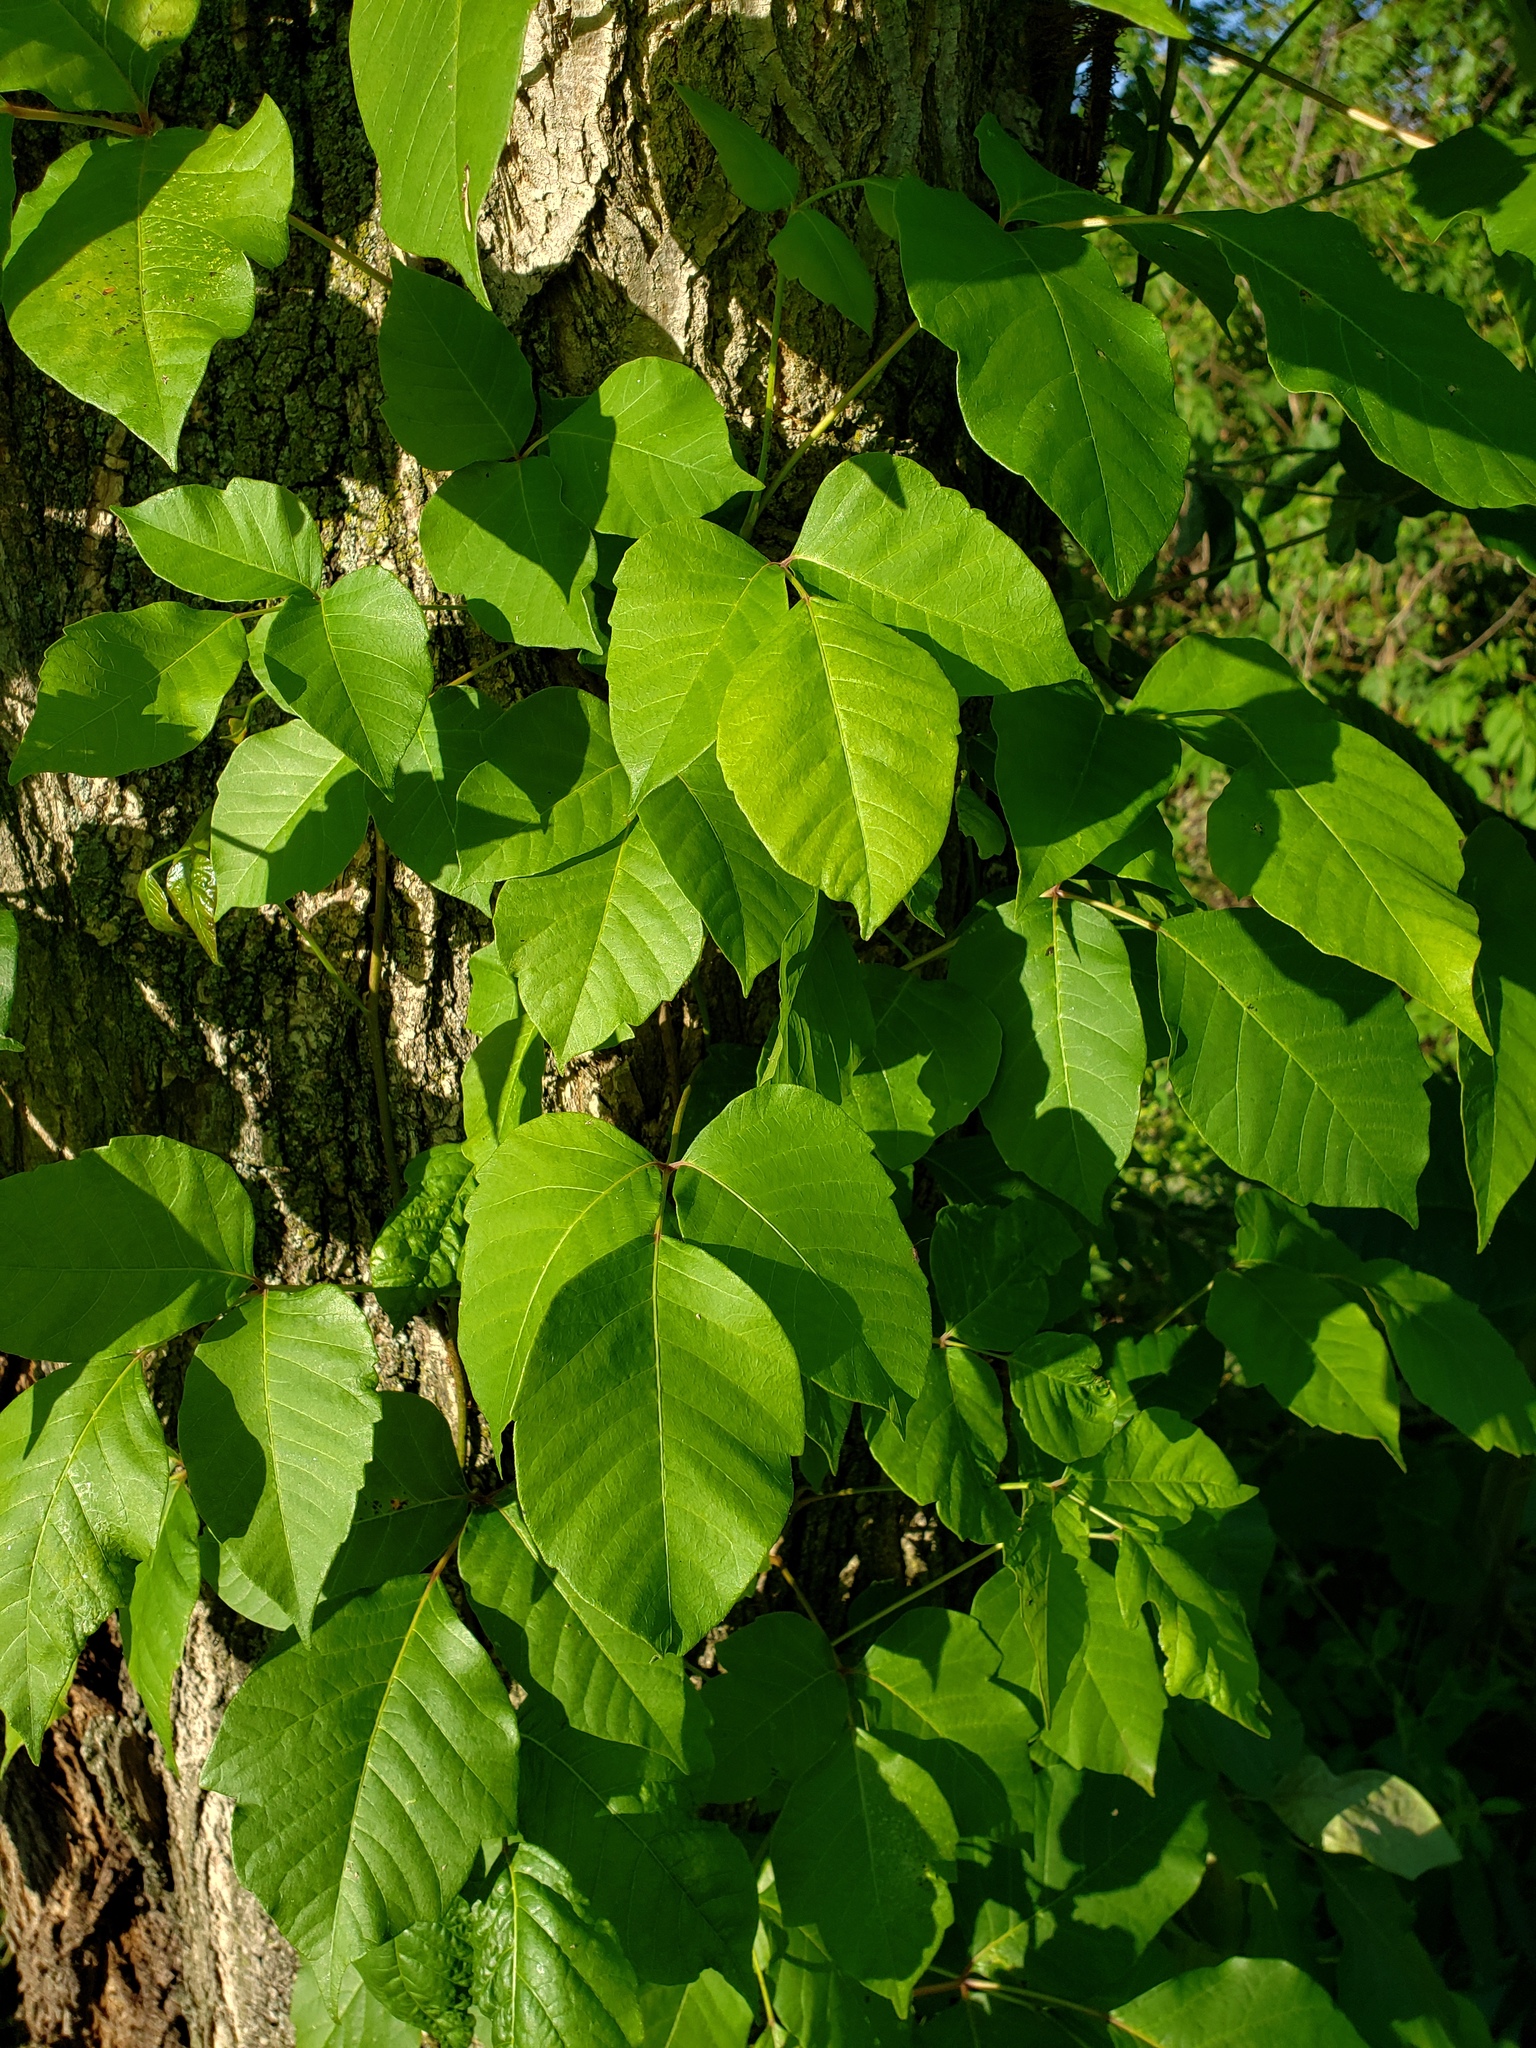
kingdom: Plantae
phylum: Tracheophyta
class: Magnoliopsida
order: Sapindales
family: Anacardiaceae
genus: Toxicodendron
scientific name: Toxicodendron radicans
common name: Poison ivy
